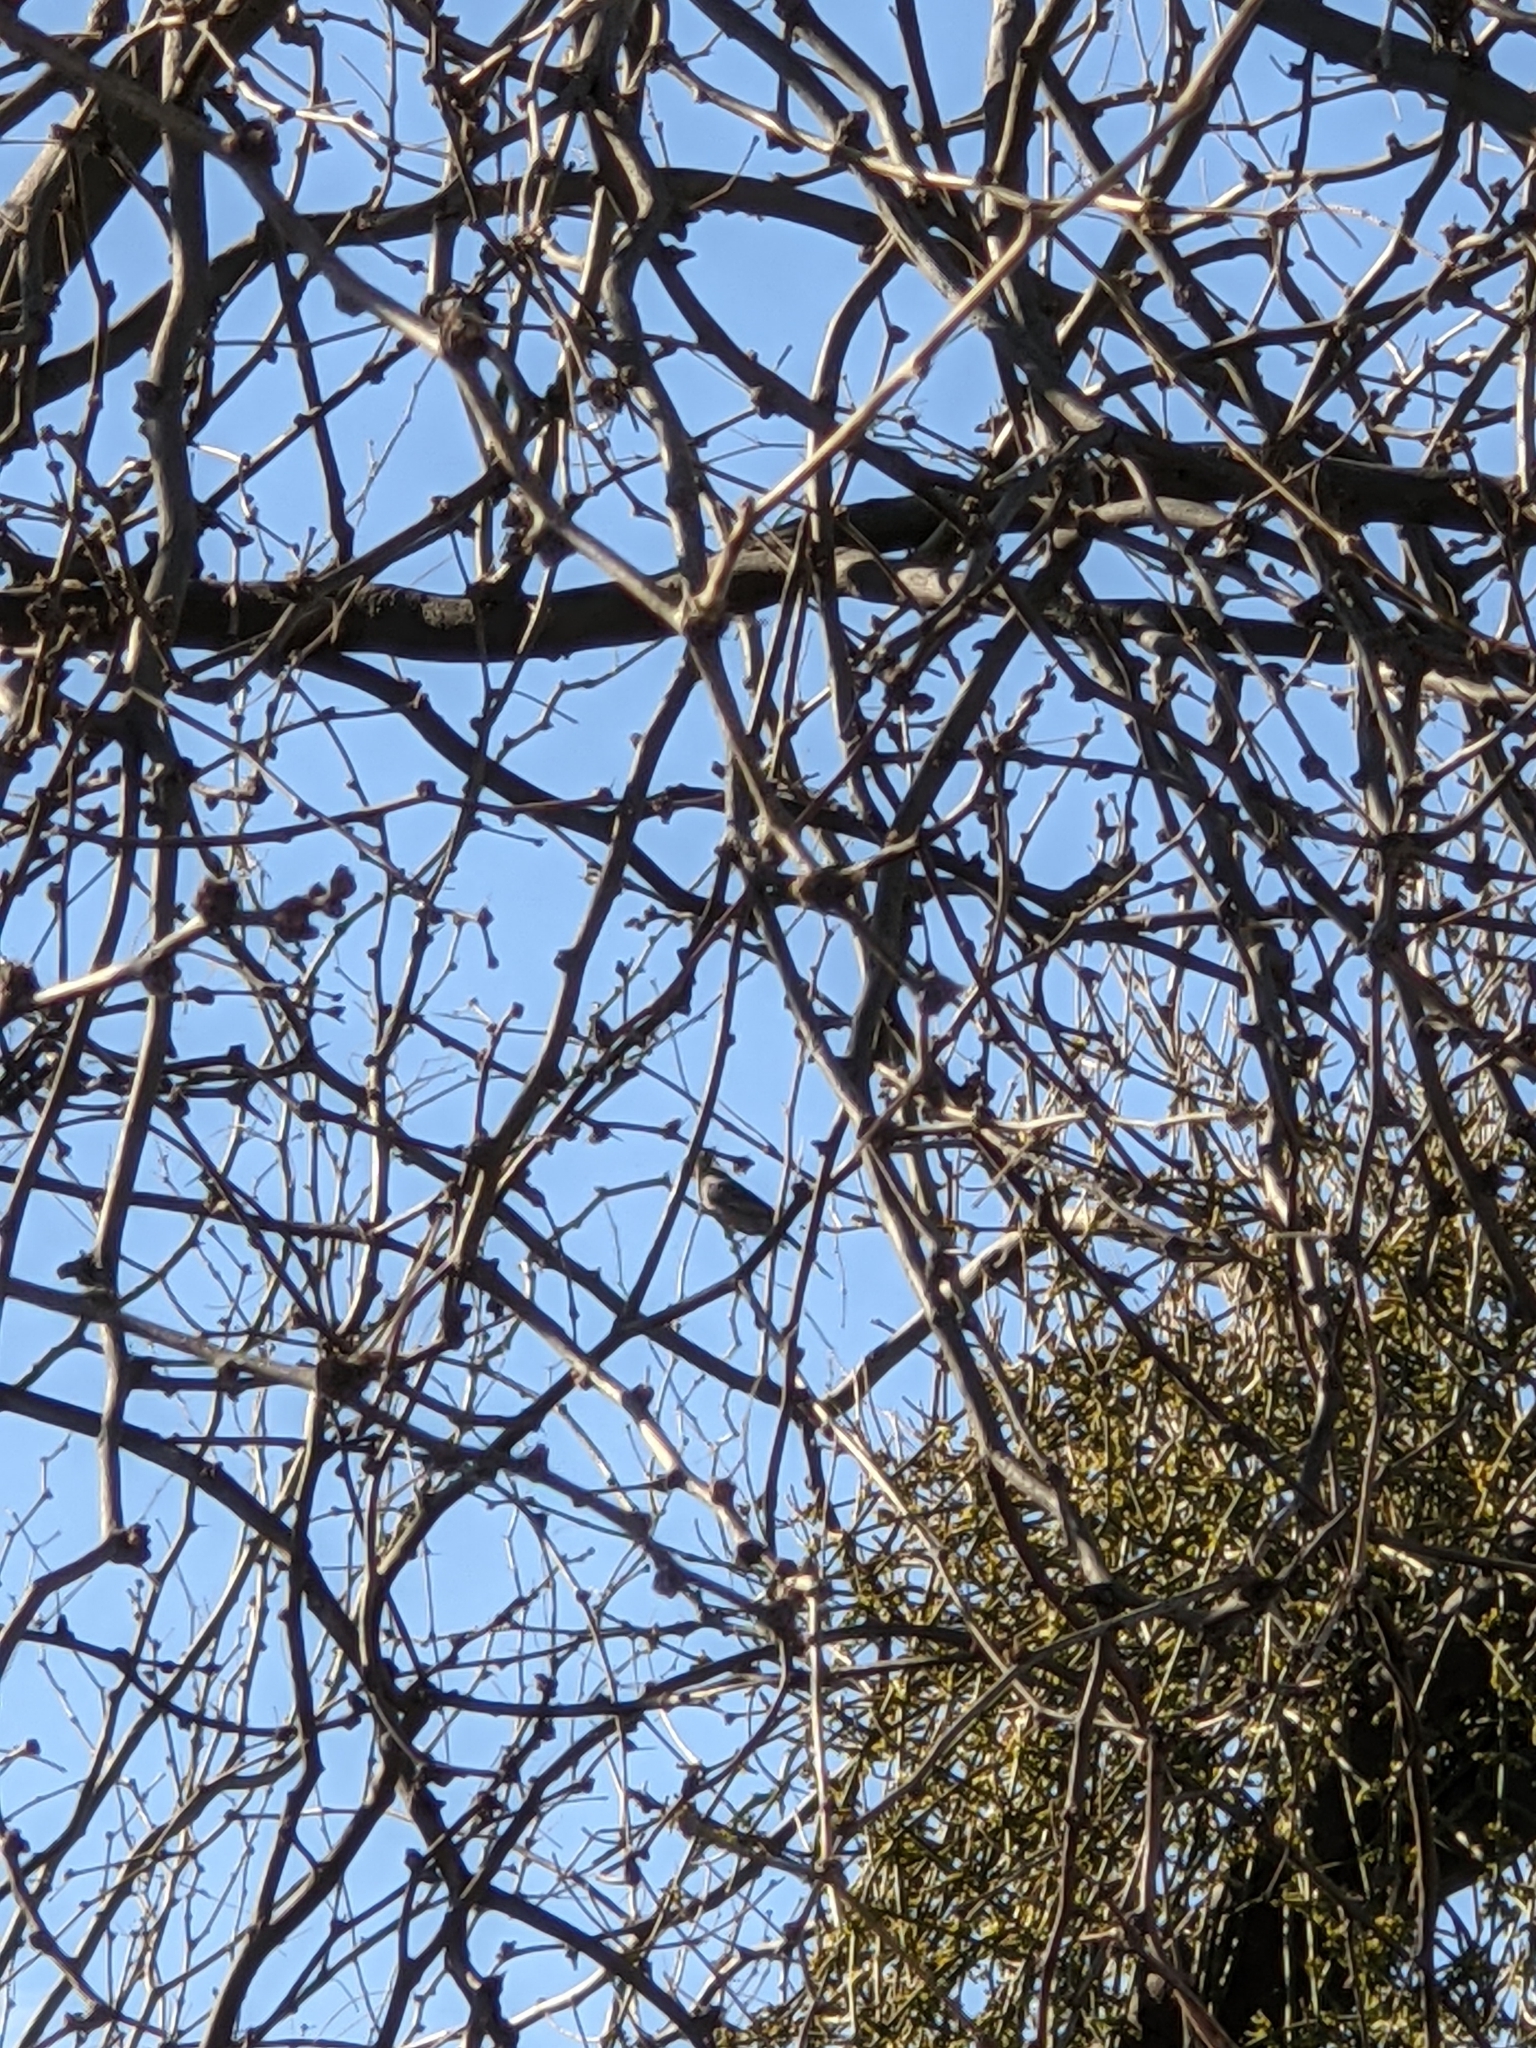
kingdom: Animalia
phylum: Chordata
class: Aves
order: Columbiformes
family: Columbidae
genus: Zenaida
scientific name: Zenaida macroura
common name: Mourning dove
